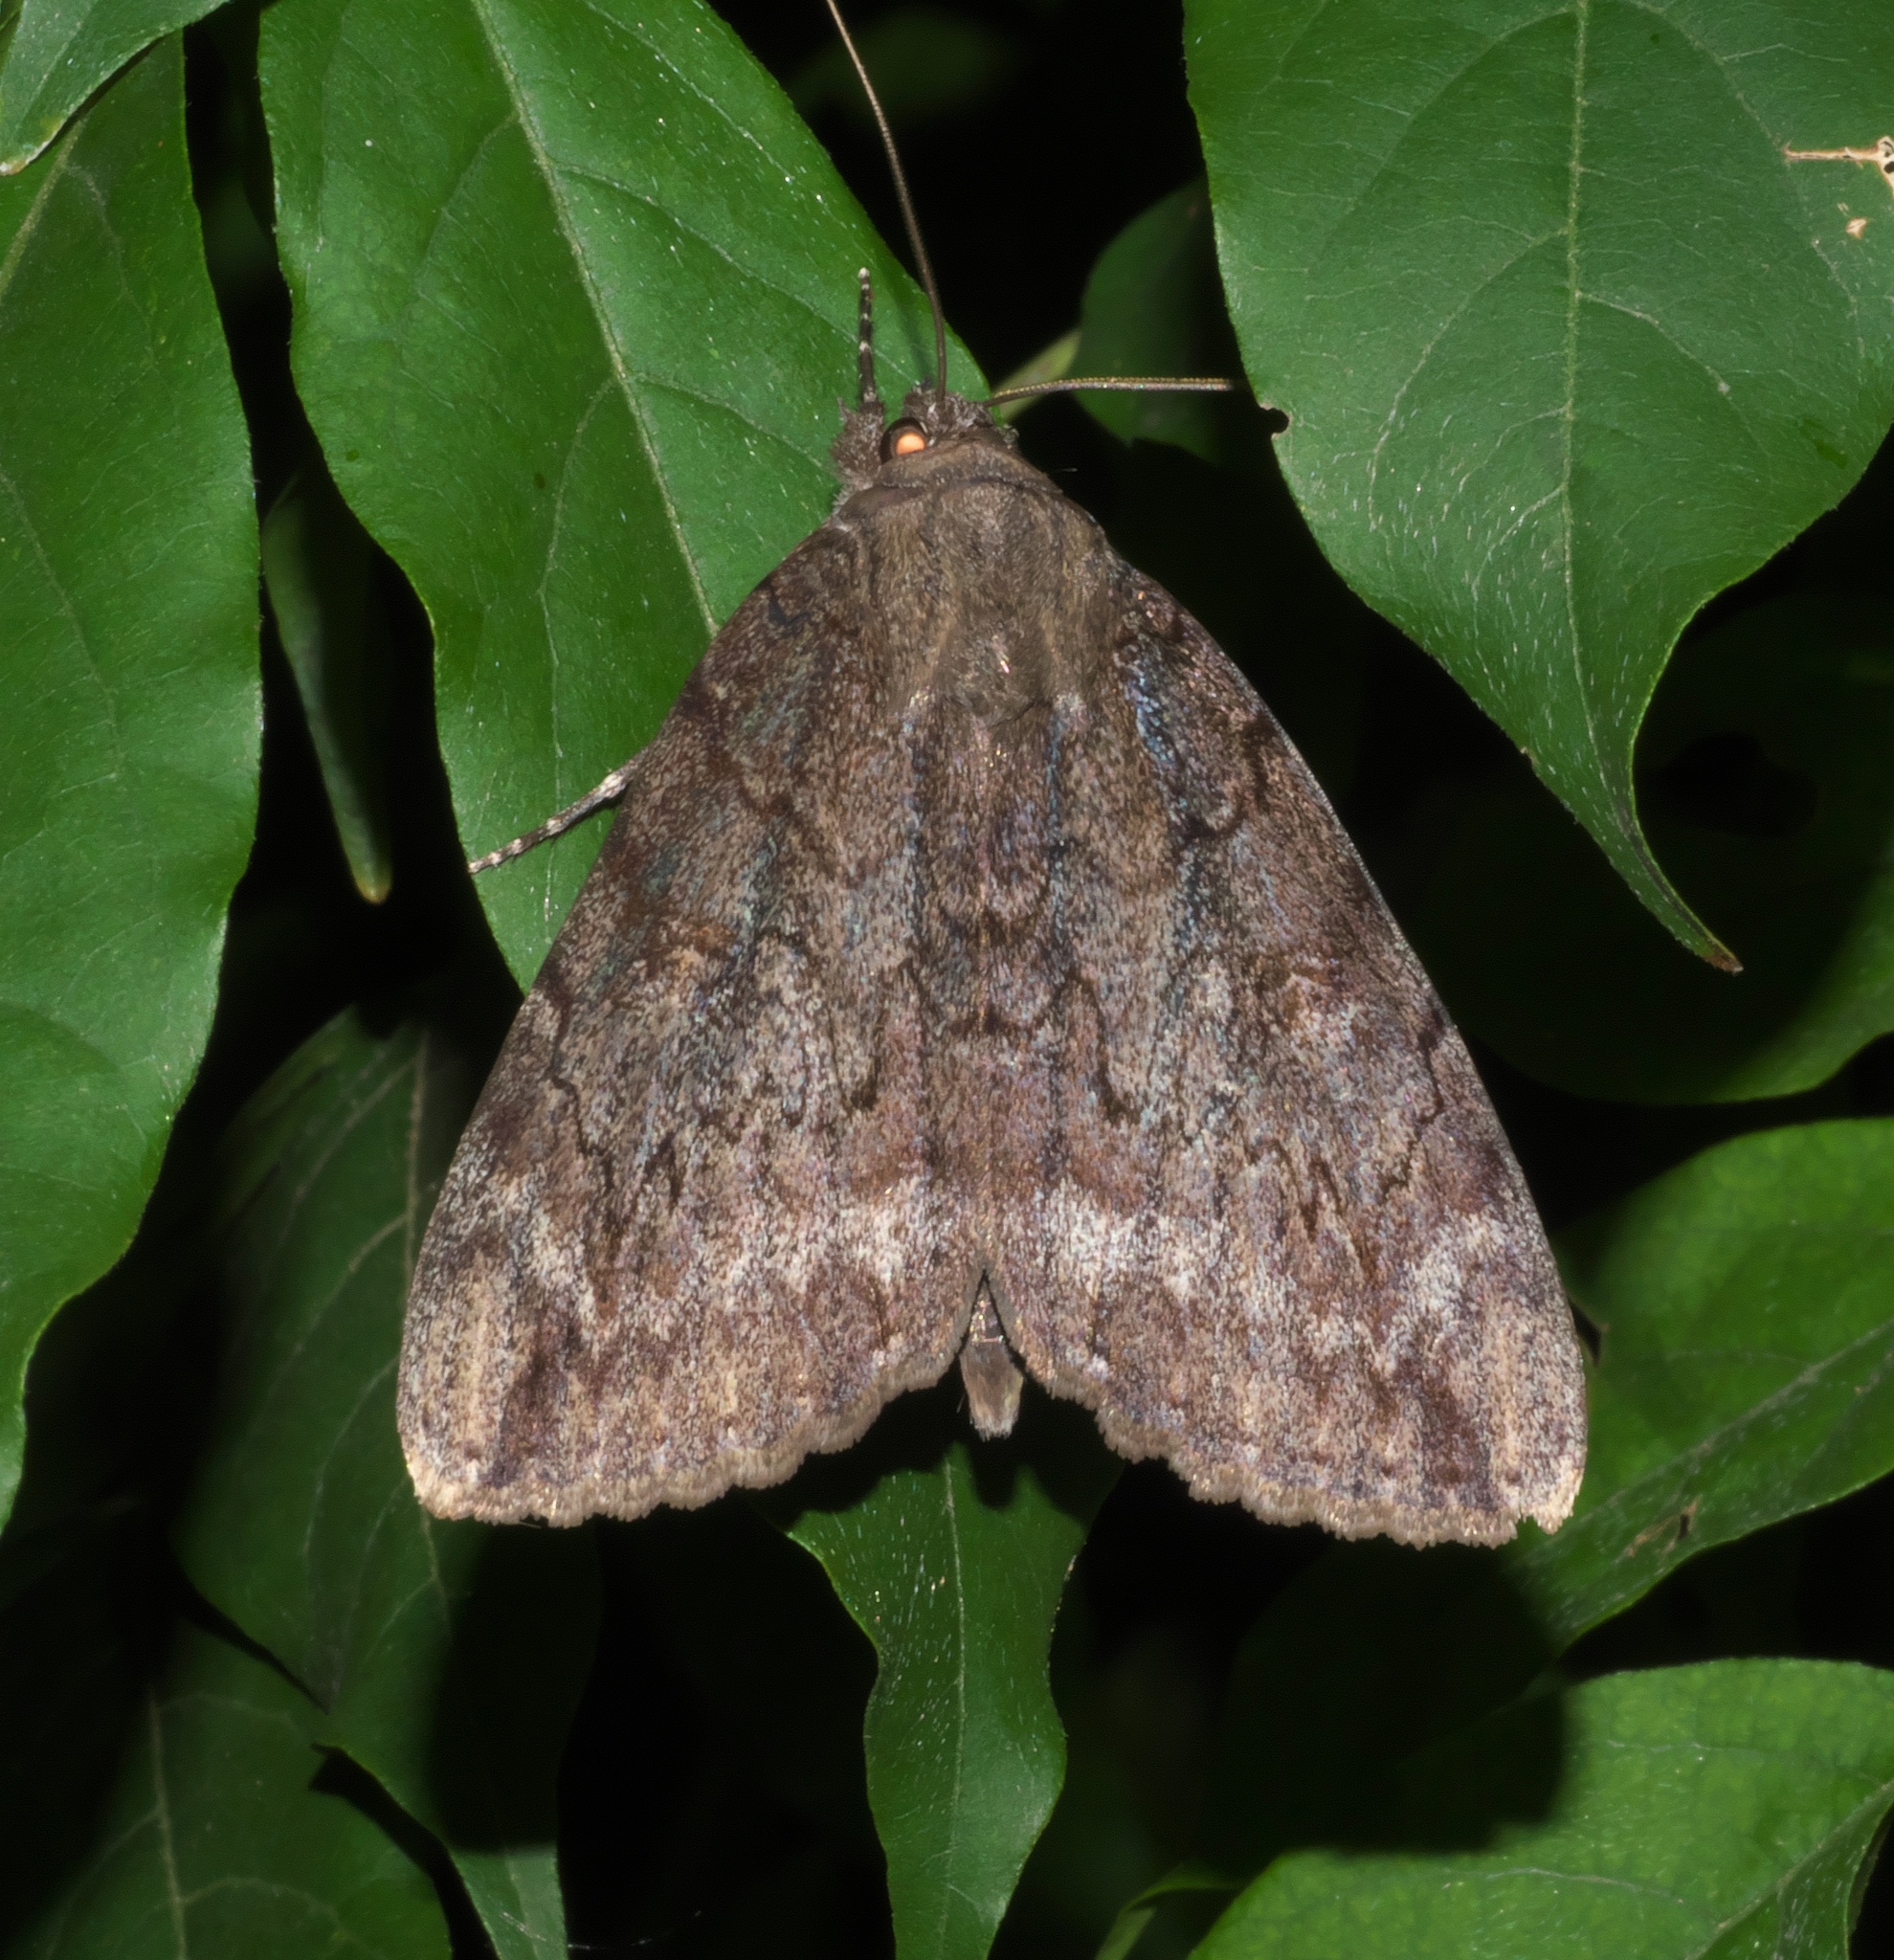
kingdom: Animalia
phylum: Arthropoda
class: Insecta
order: Lepidoptera
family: Erebidae
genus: Catocala
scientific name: Catocala residua
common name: Residua underwing
